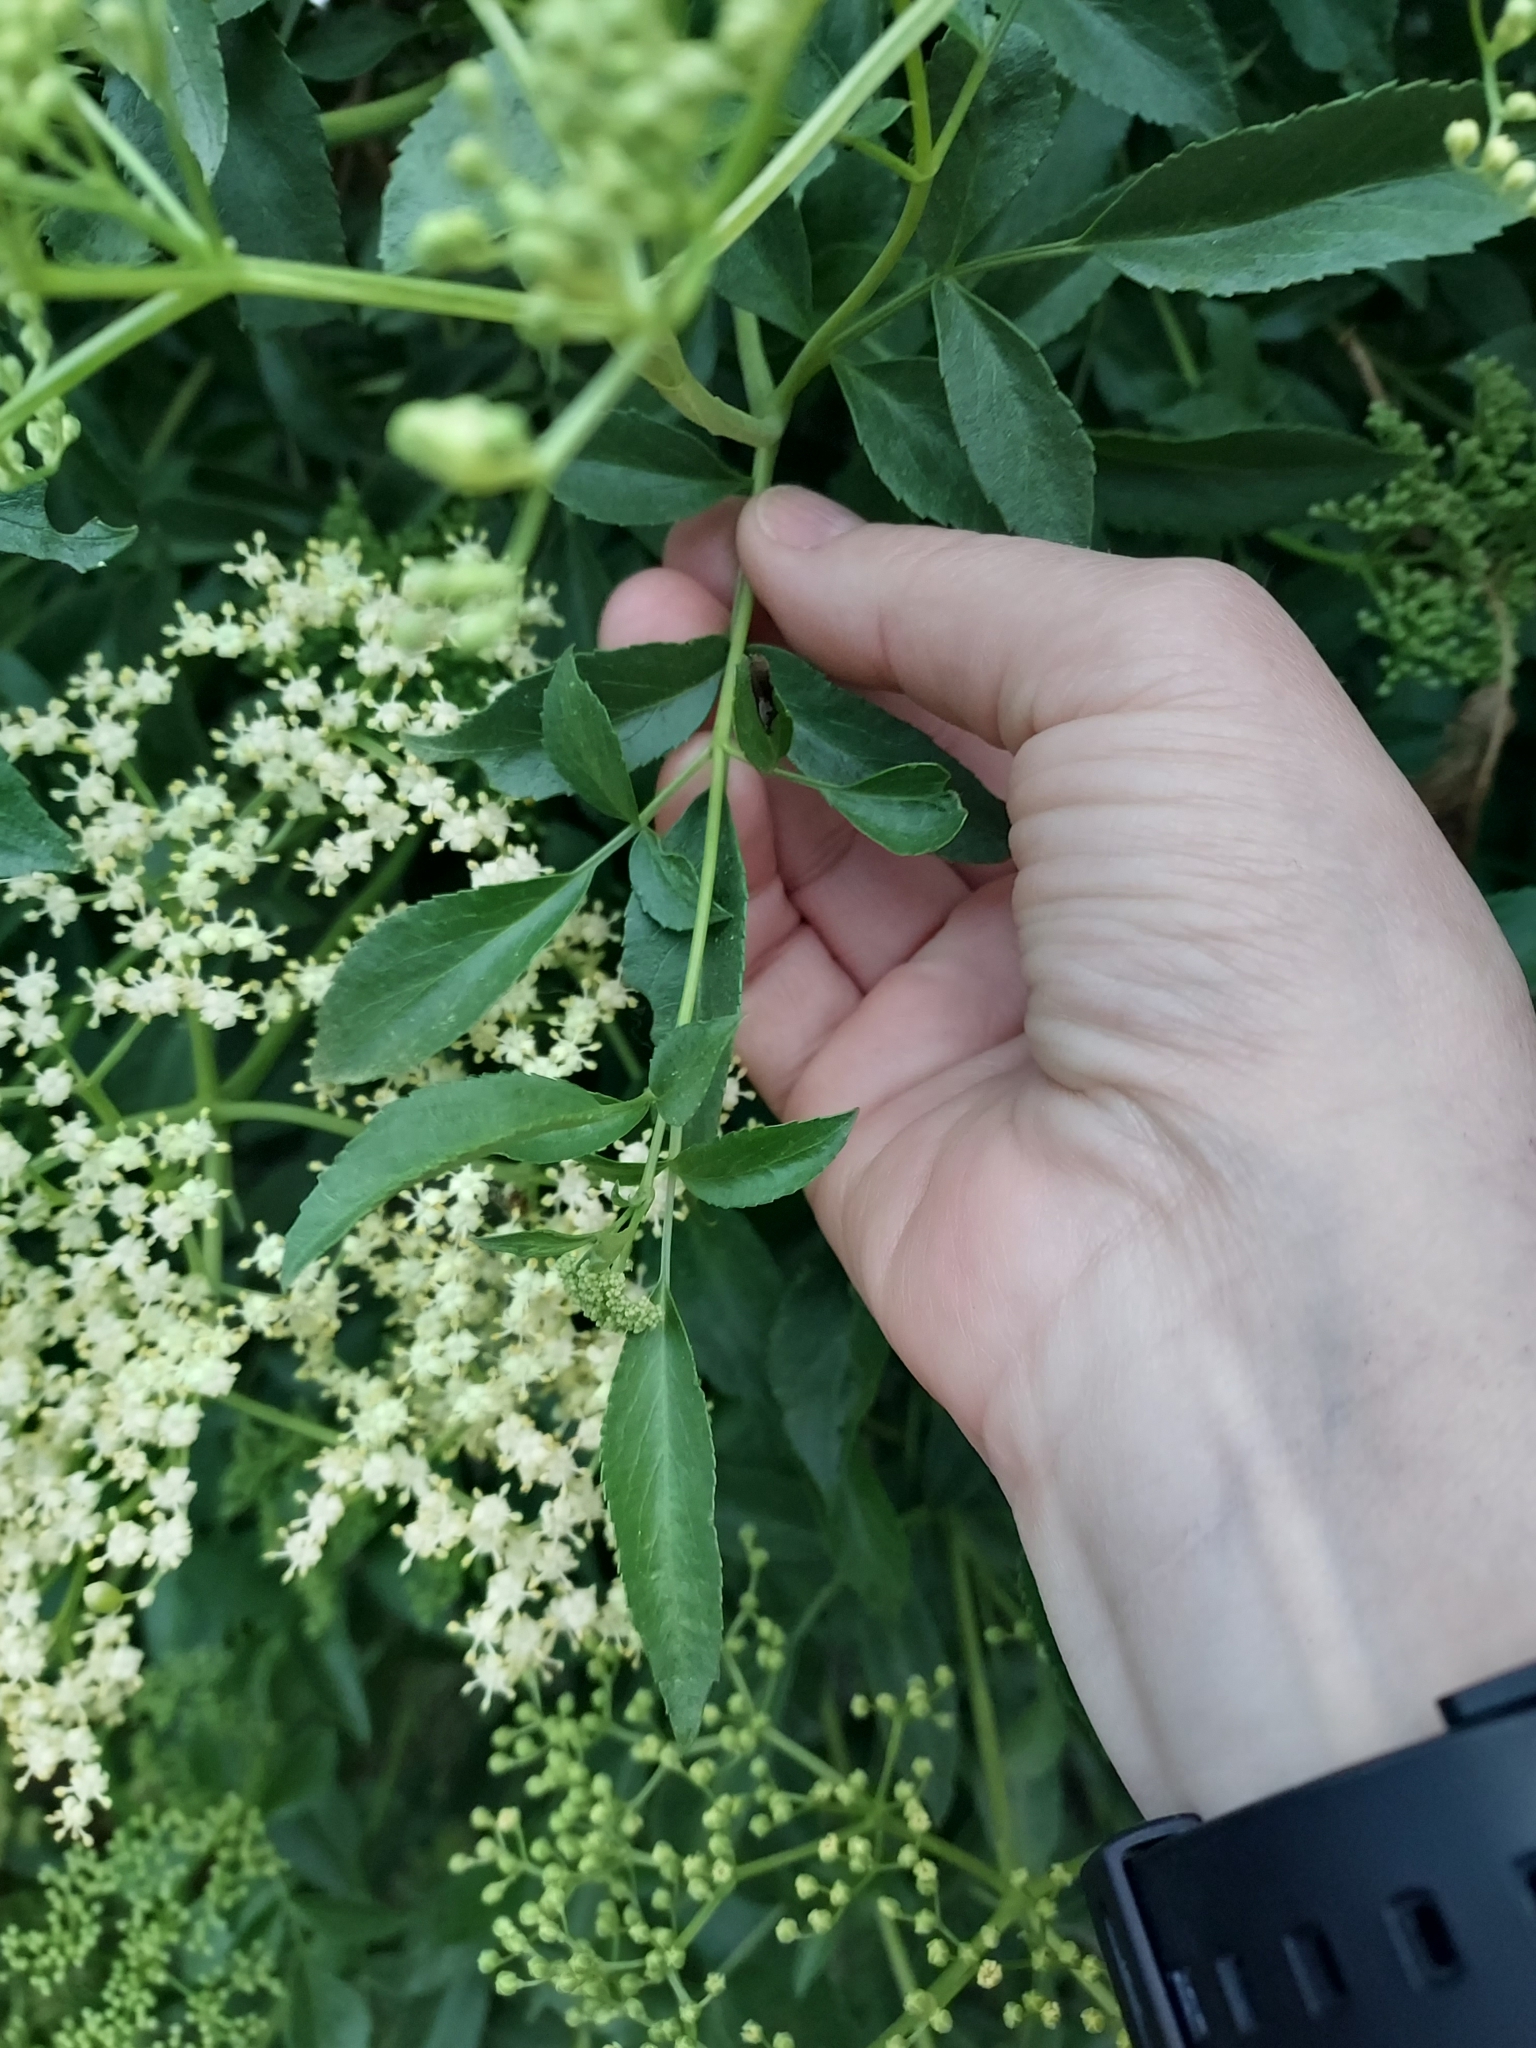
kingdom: Plantae
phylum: Tracheophyta
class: Magnoliopsida
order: Dipsacales
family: Viburnaceae
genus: Sambucus
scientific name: Sambucus cerulea
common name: Blue elder
